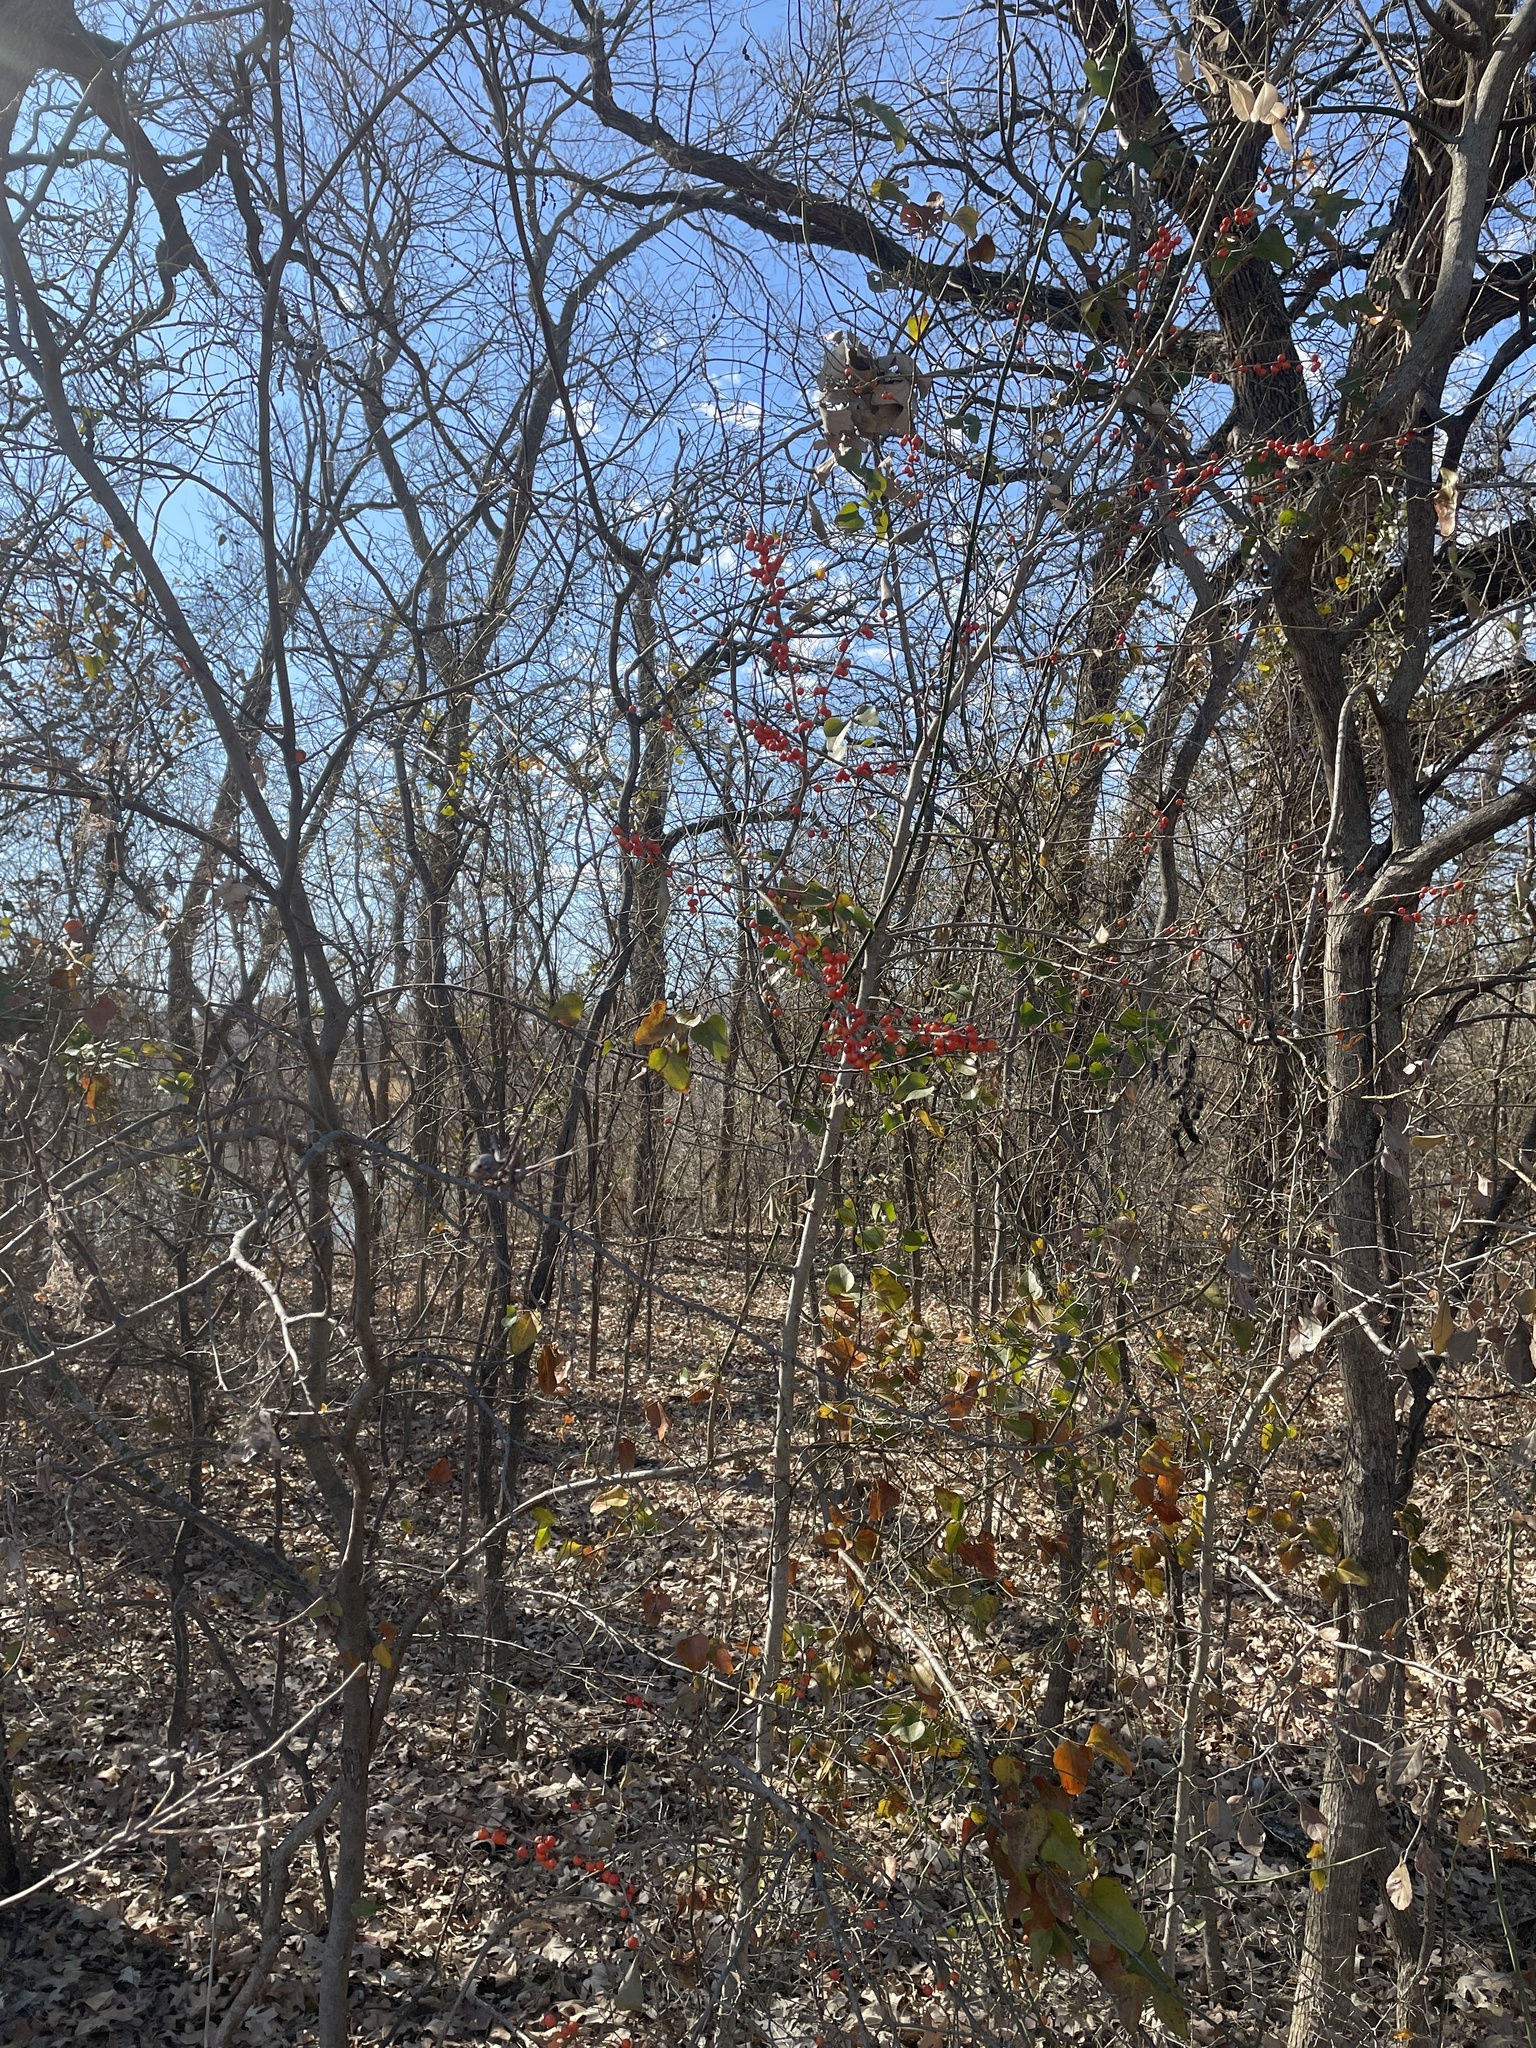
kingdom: Plantae
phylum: Tracheophyta
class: Magnoliopsida
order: Aquifoliales
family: Aquifoliaceae
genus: Ilex
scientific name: Ilex decidua
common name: Possum-haw
